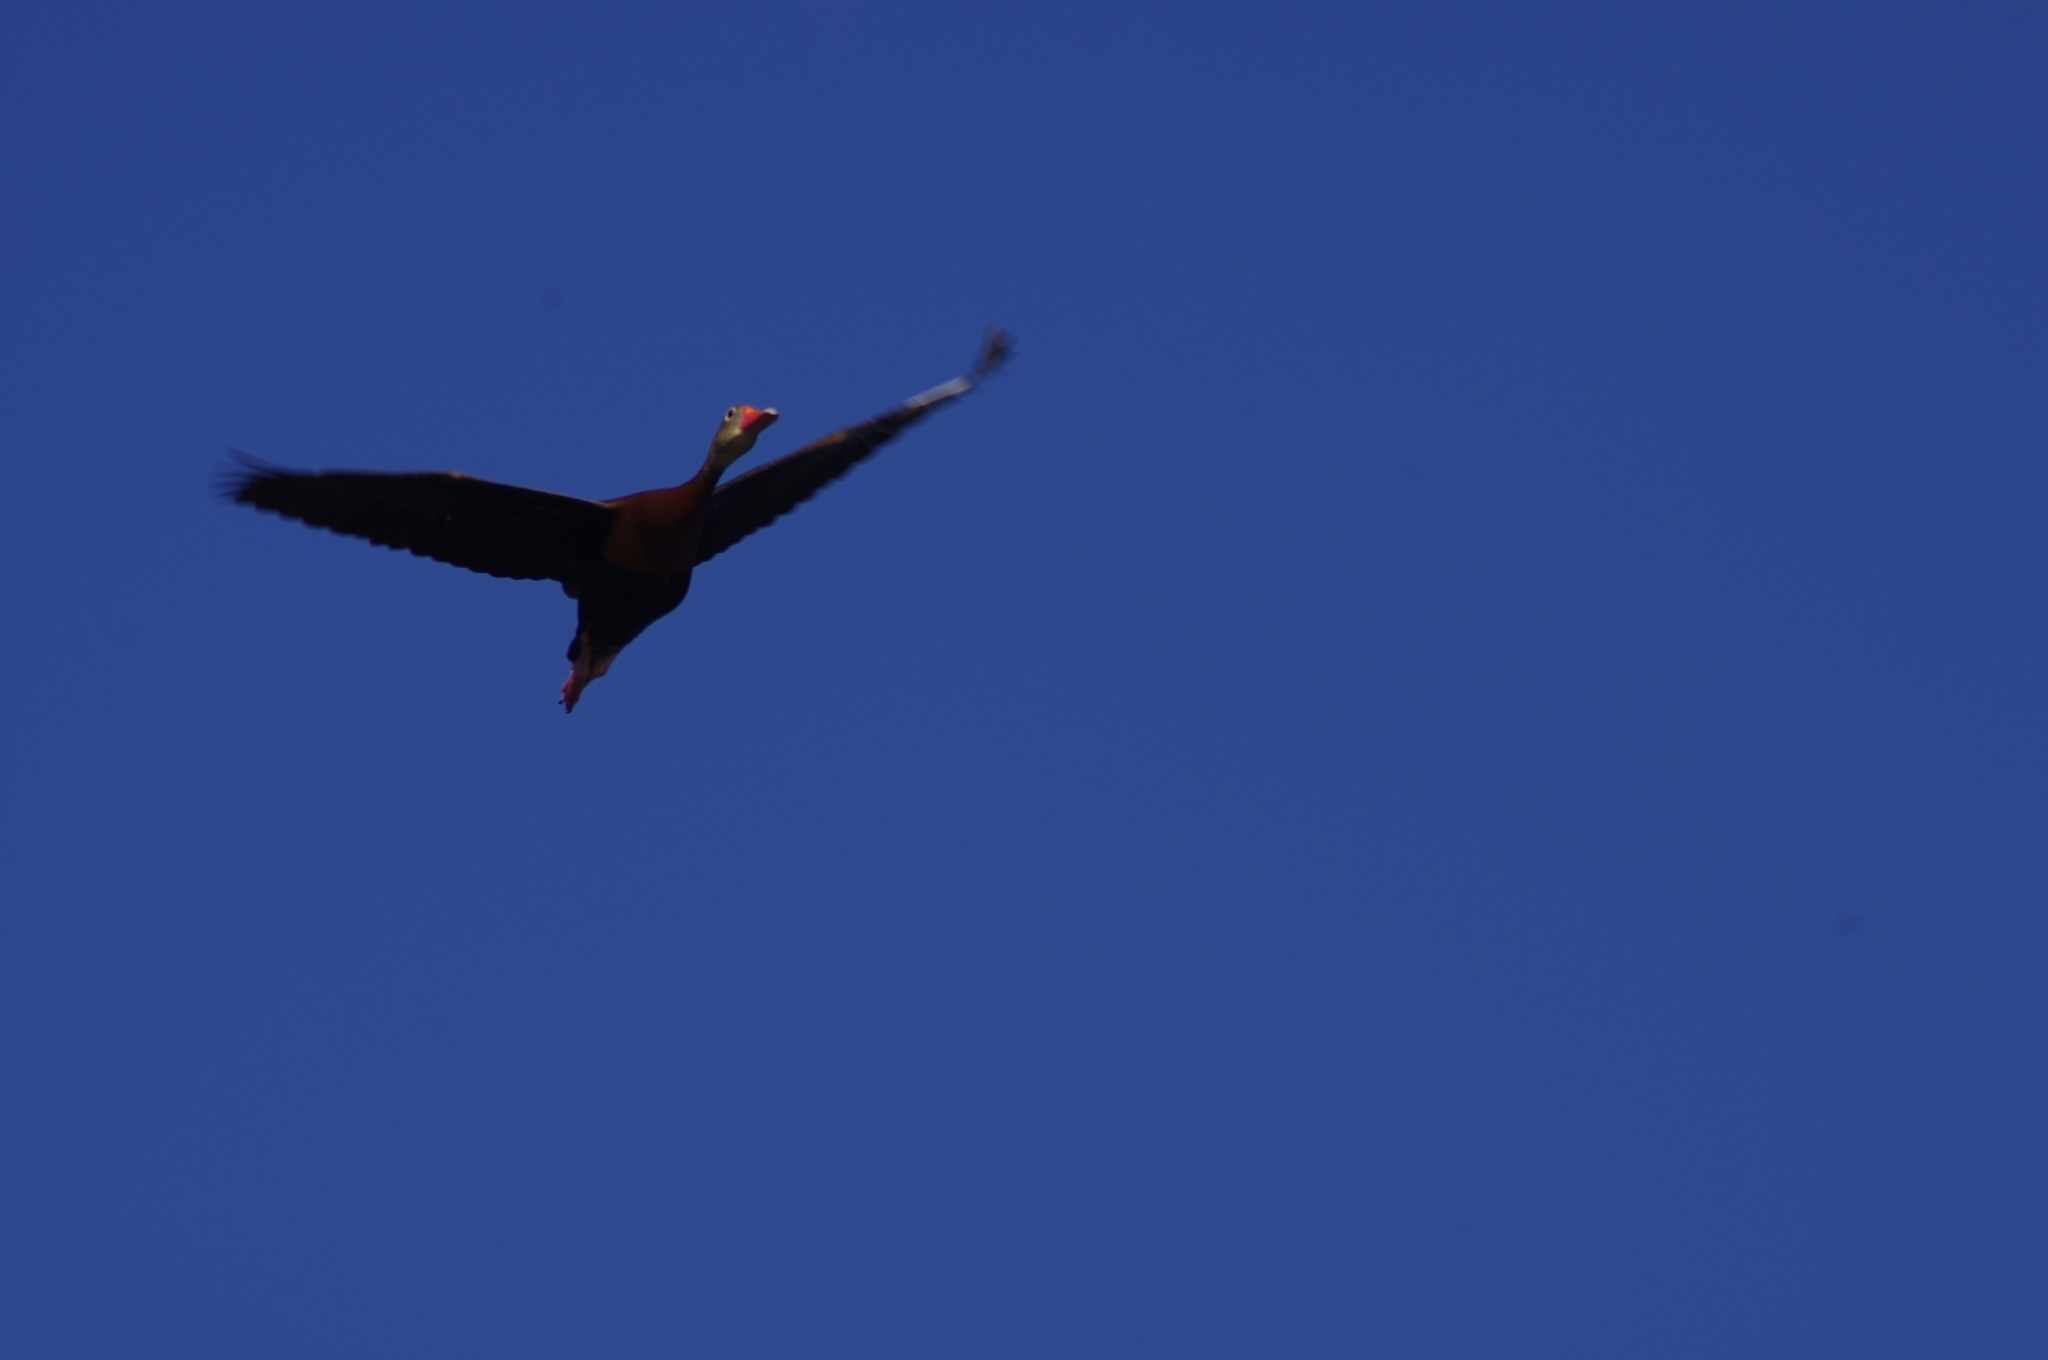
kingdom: Animalia
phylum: Chordata
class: Aves
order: Anseriformes
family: Anatidae
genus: Dendrocygna
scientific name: Dendrocygna autumnalis
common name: Black-bellied whistling duck
